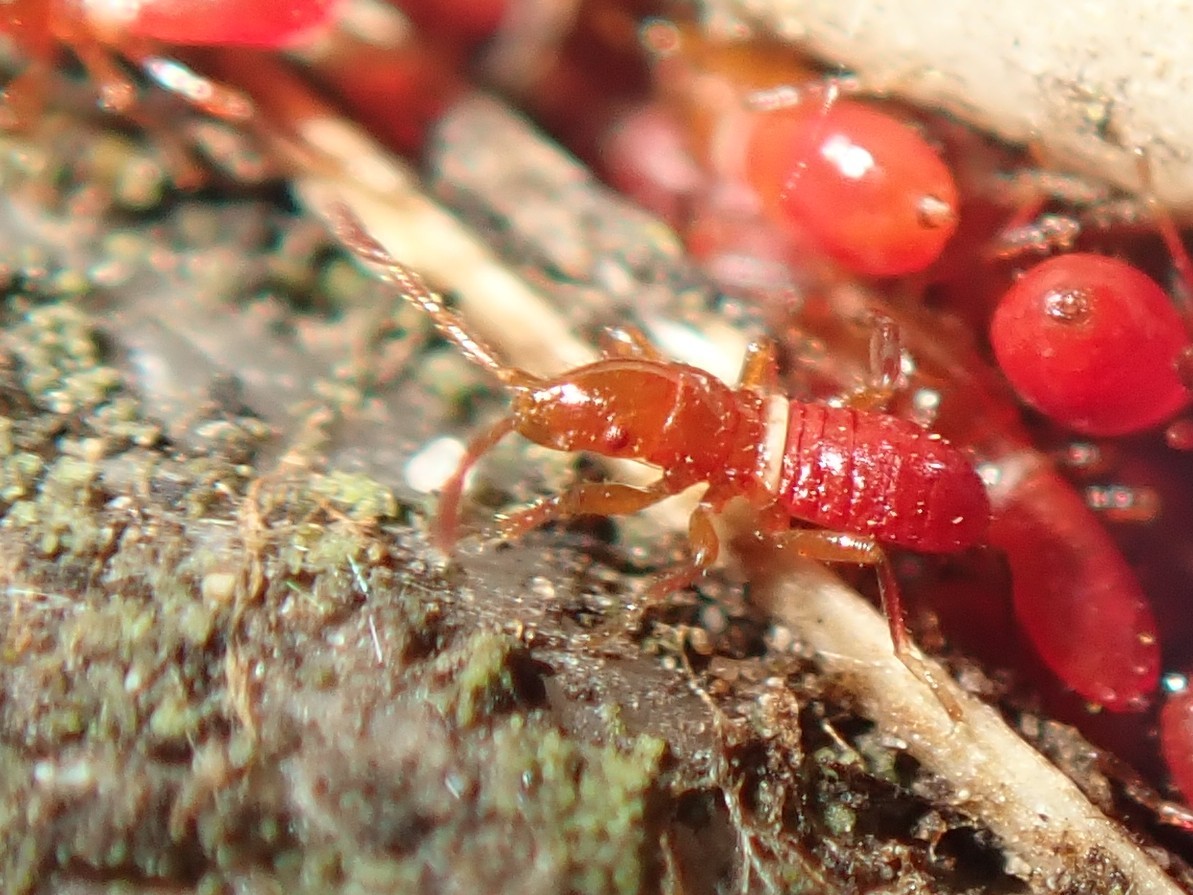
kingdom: Animalia
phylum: Arthropoda
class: Insecta
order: Hemiptera
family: Oxycarenidae
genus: Oxycarenus
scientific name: Oxycarenus lavaterae
